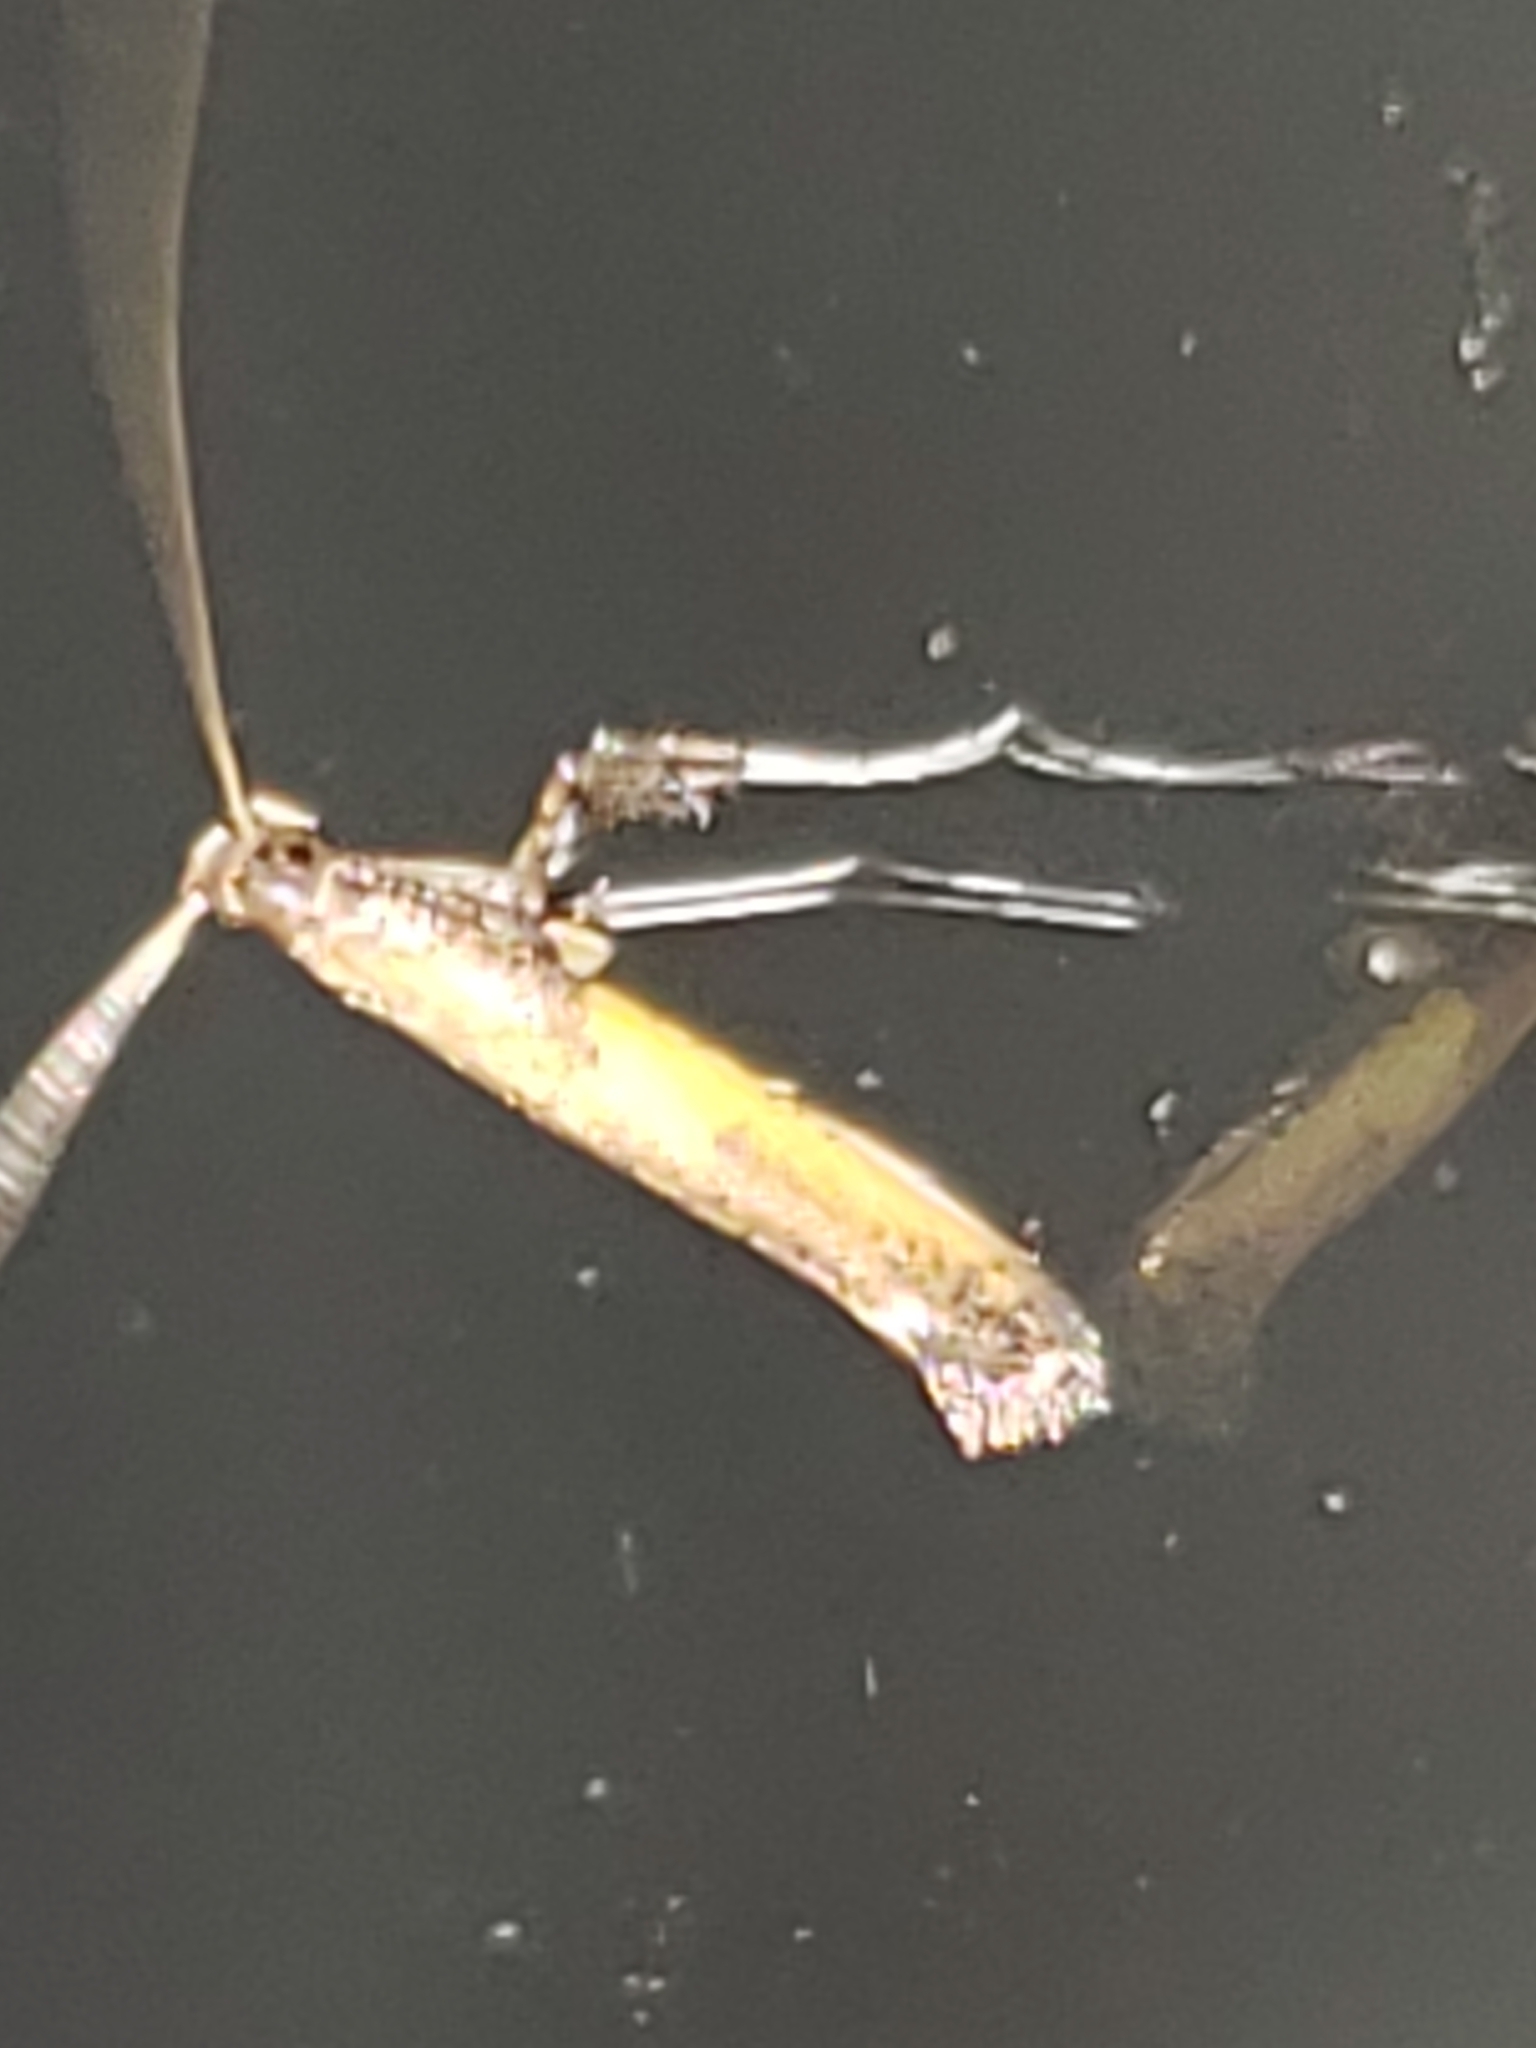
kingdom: Animalia
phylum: Arthropoda
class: Insecta
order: Lepidoptera
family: Gracillariidae
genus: Caloptilia
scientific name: Caloptilia azaleella
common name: Azalea leafminer
